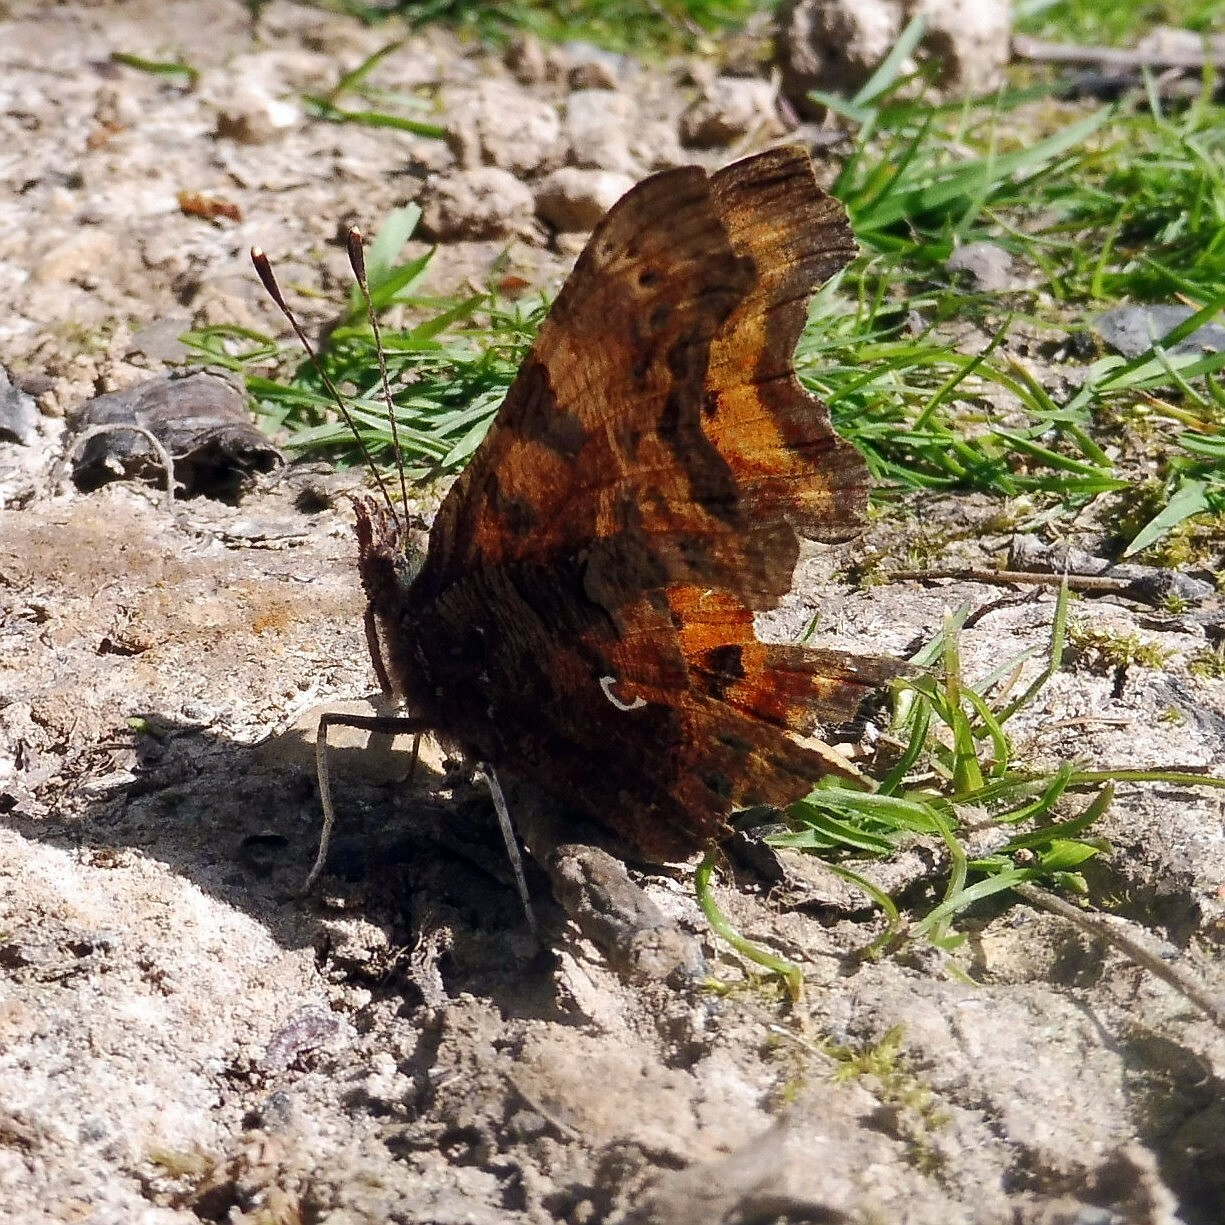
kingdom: Animalia
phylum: Arthropoda
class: Insecta
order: Lepidoptera
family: Nymphalidae
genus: Polygonia
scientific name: Polygonia c-album
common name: Comma
